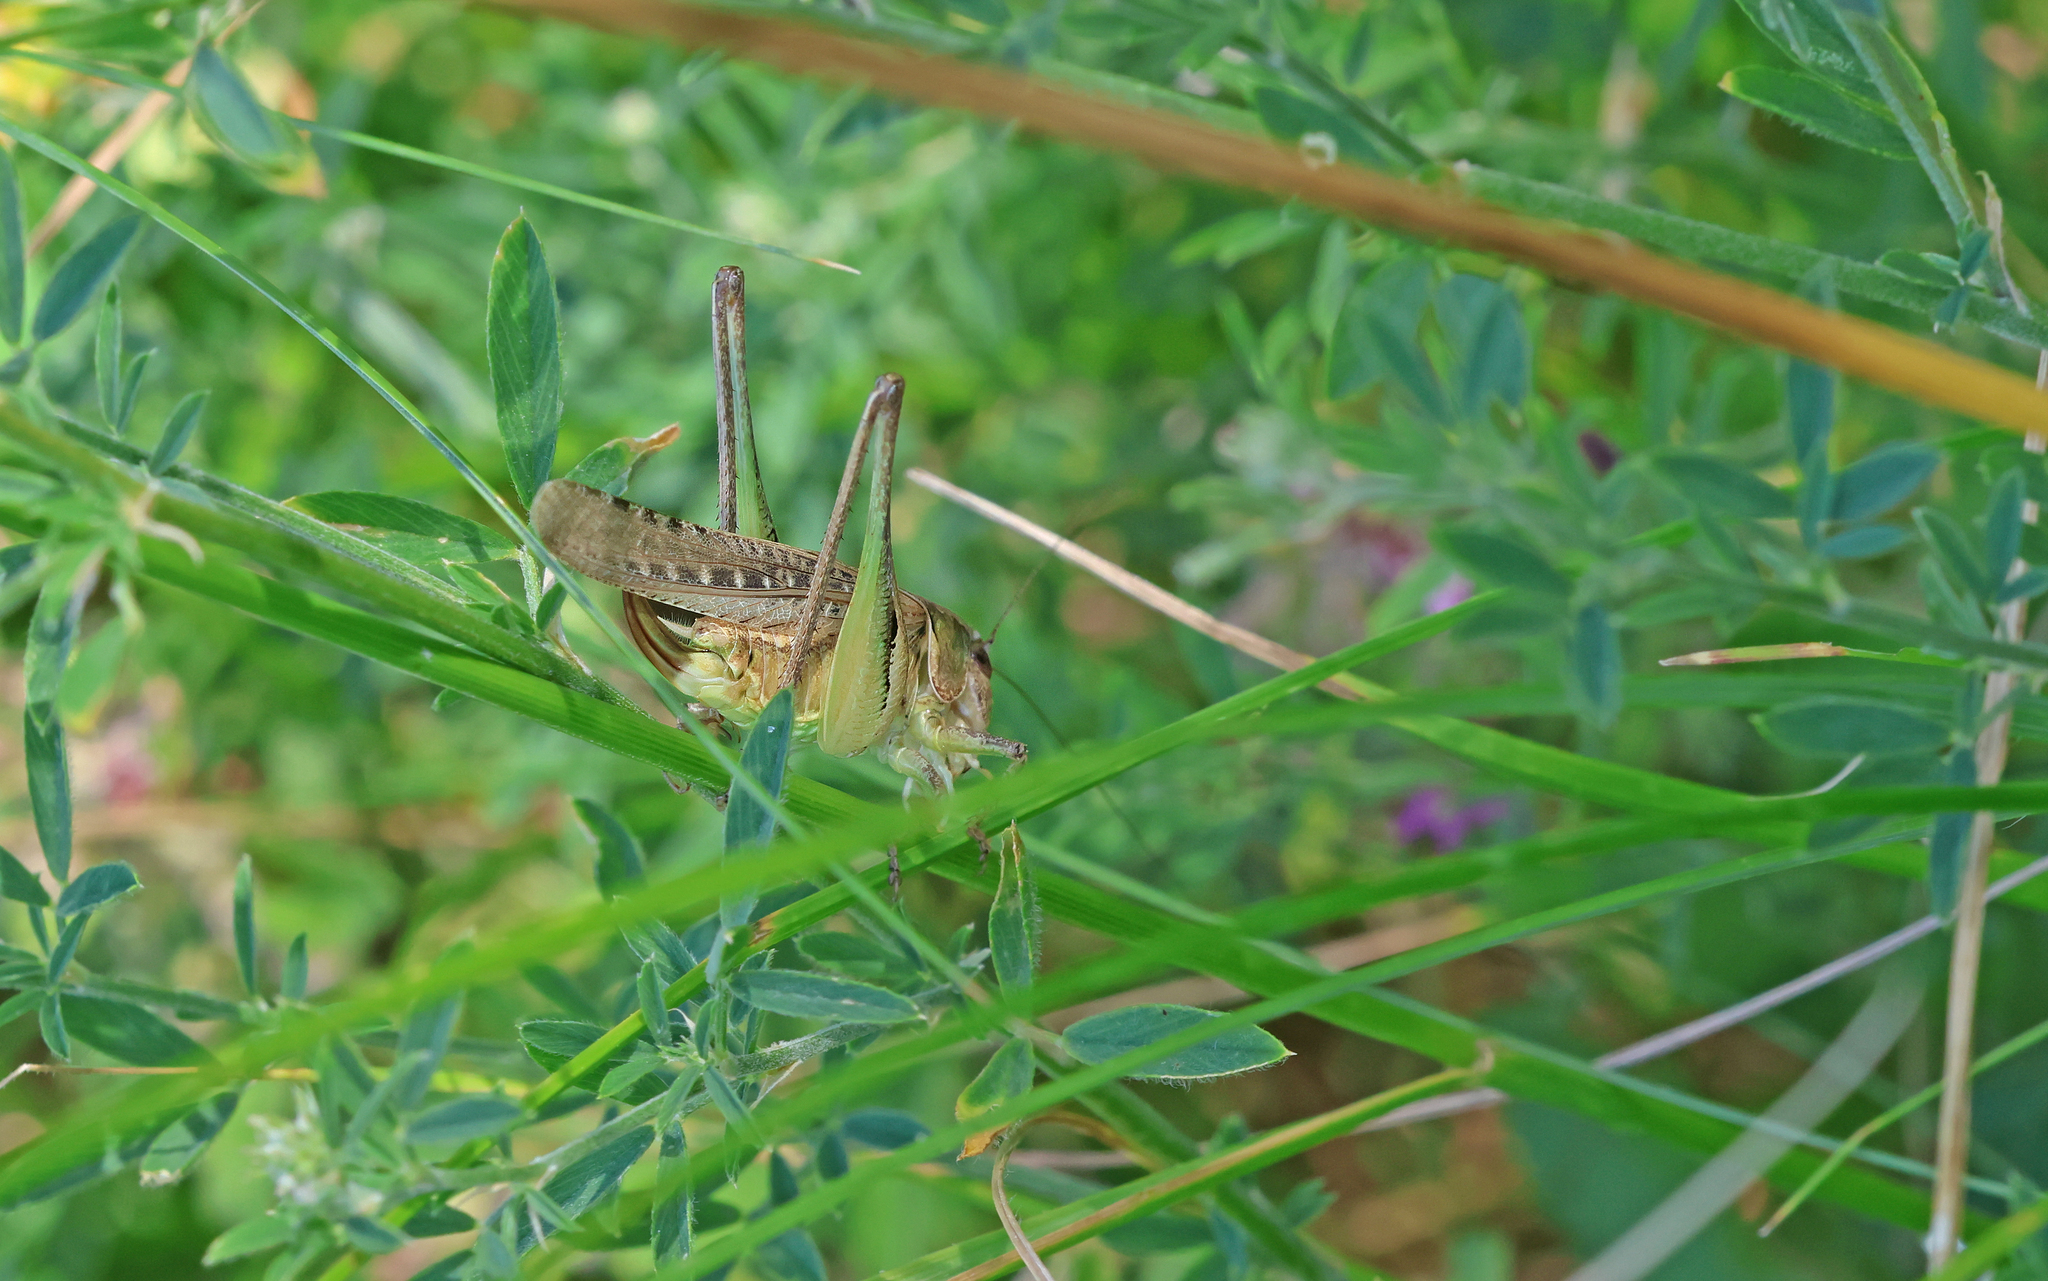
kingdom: Animalia
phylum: Arthropoda
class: Insecta
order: Orthoptera
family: Tettigoniidae
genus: Platycleis
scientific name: Platycleis grisea
